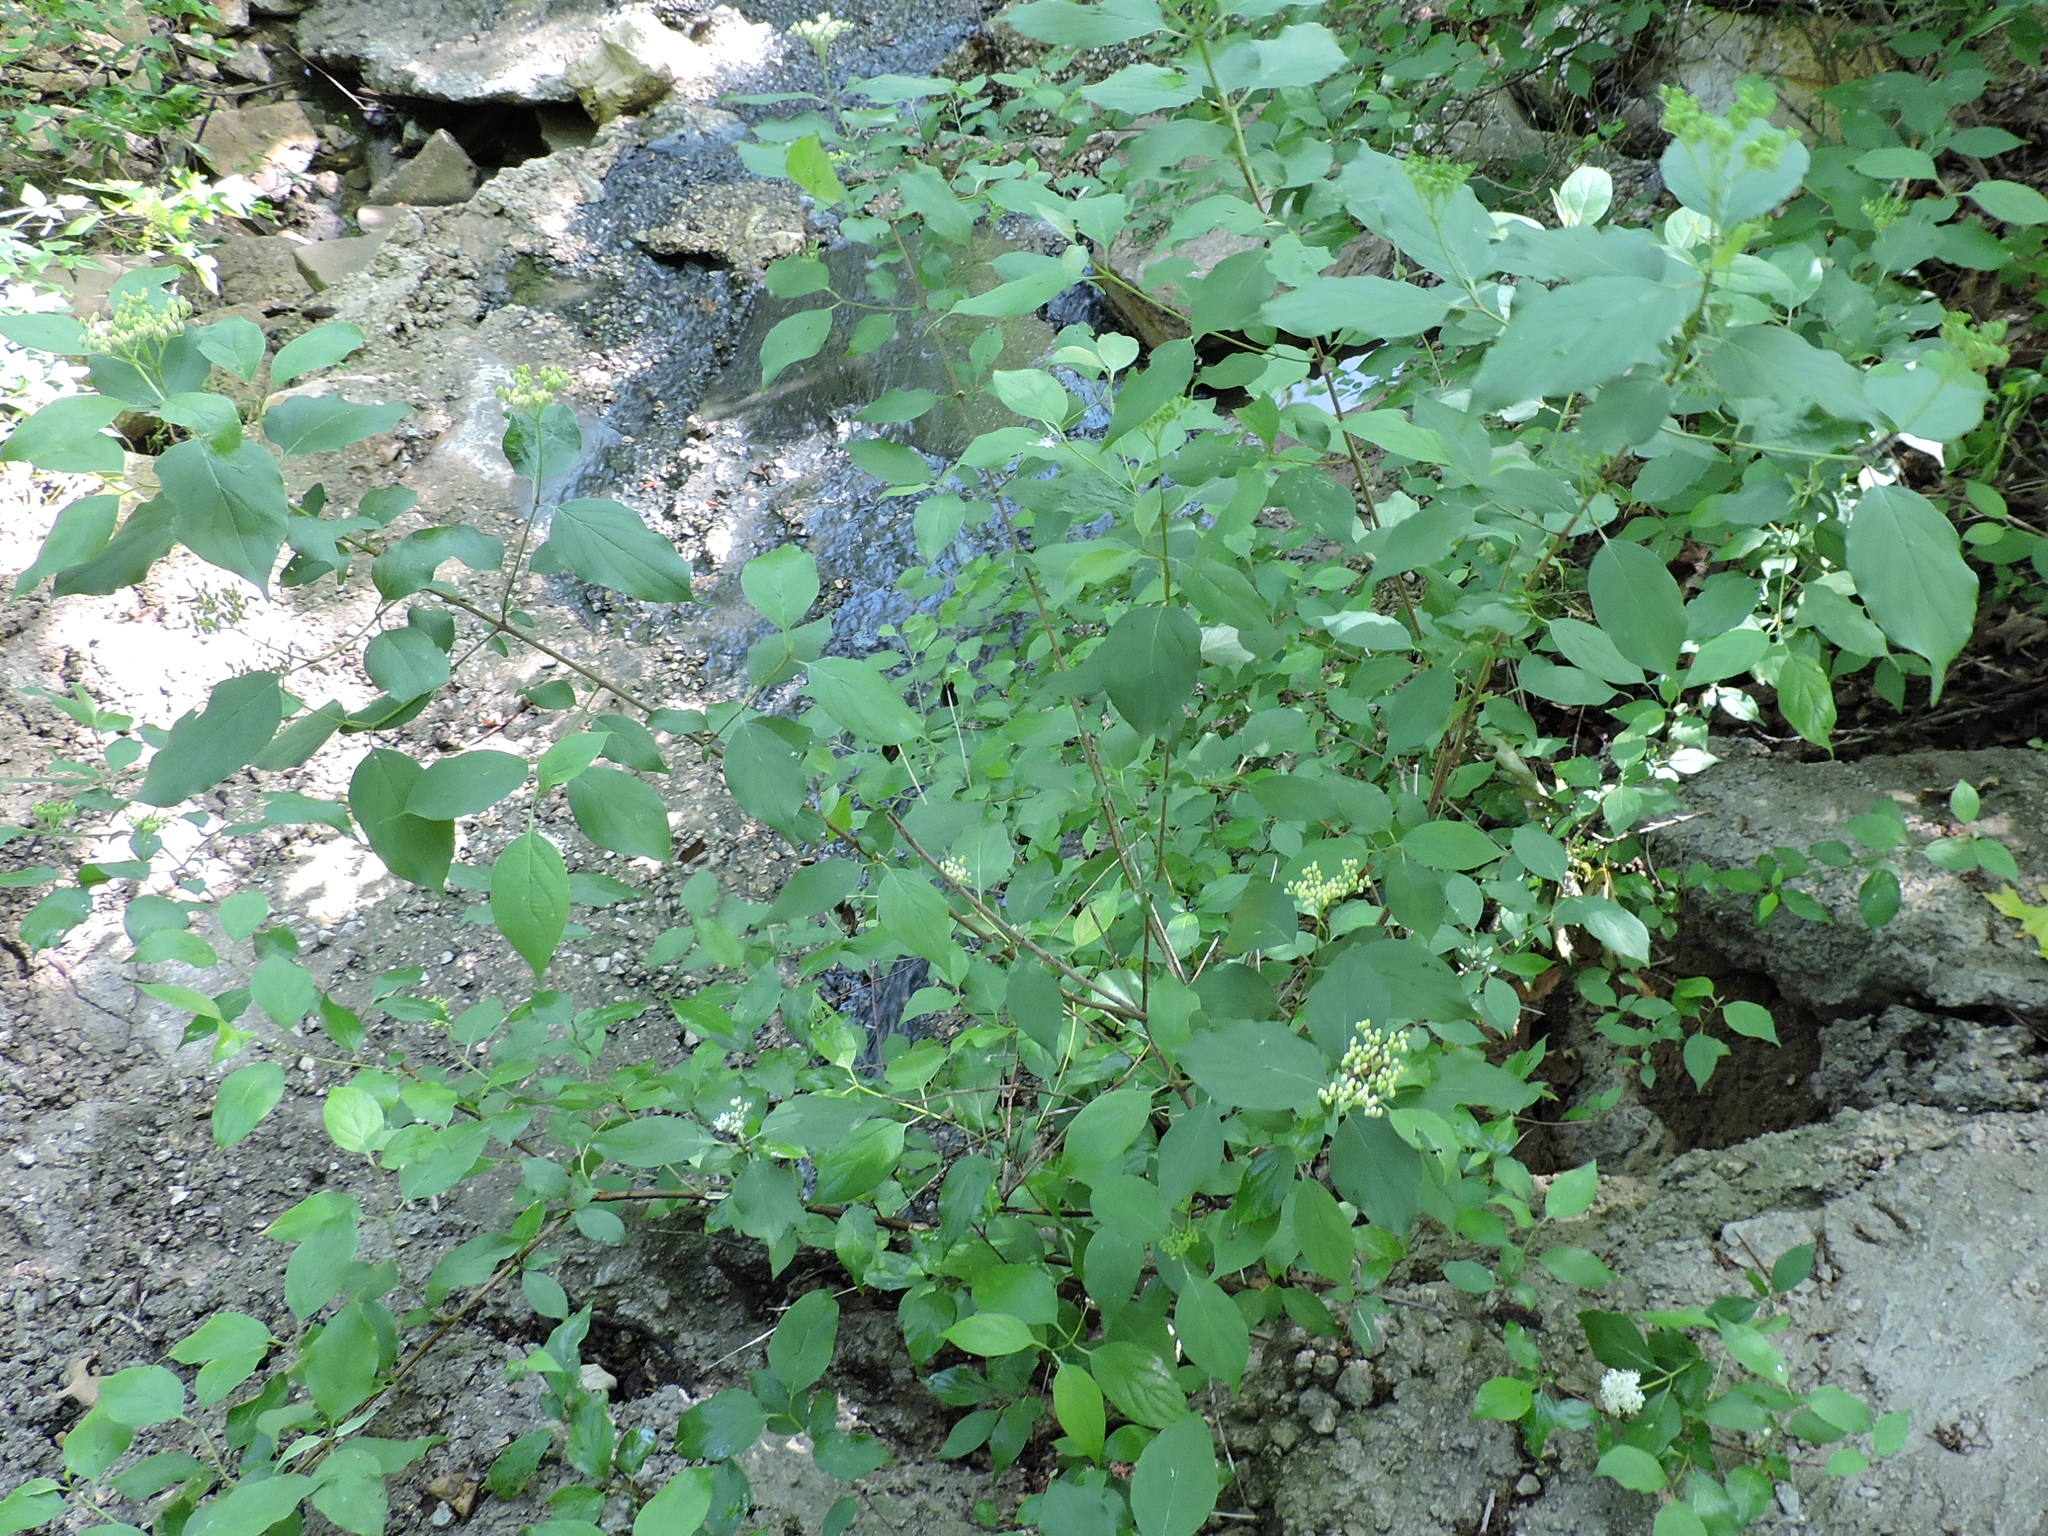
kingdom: Plantae
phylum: Tracheophyta
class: Magnoliopsida
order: Cornales
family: Cornaceae
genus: Cornus
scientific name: Cornus drummondii
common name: Rough-leaf dogwood
